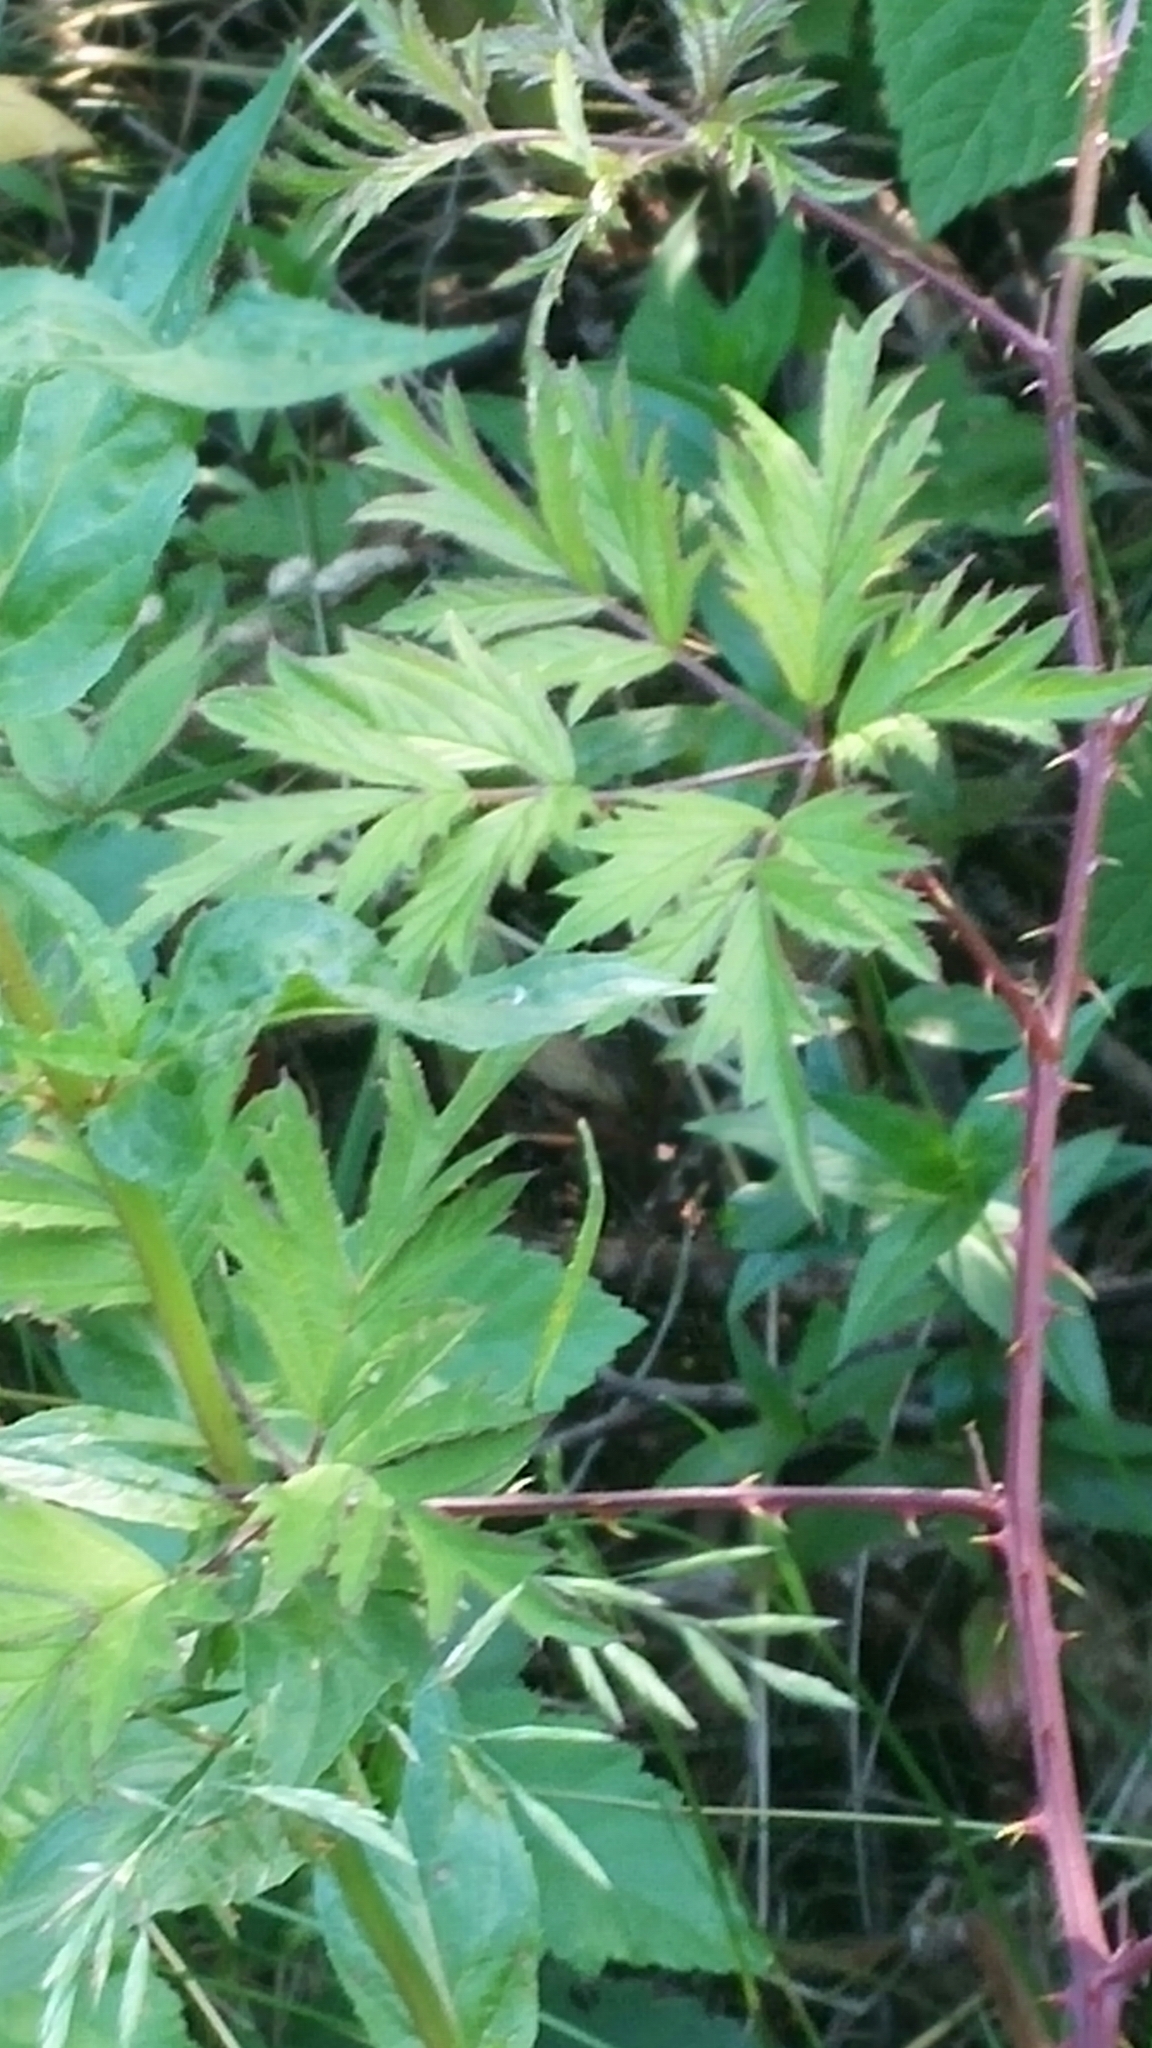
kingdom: Plantae
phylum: Tracheophyta
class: Magnoliopsida
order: Rosales
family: Rosaceae
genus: Rubus
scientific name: Rubus laciniatus
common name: Evergreen blackberry
